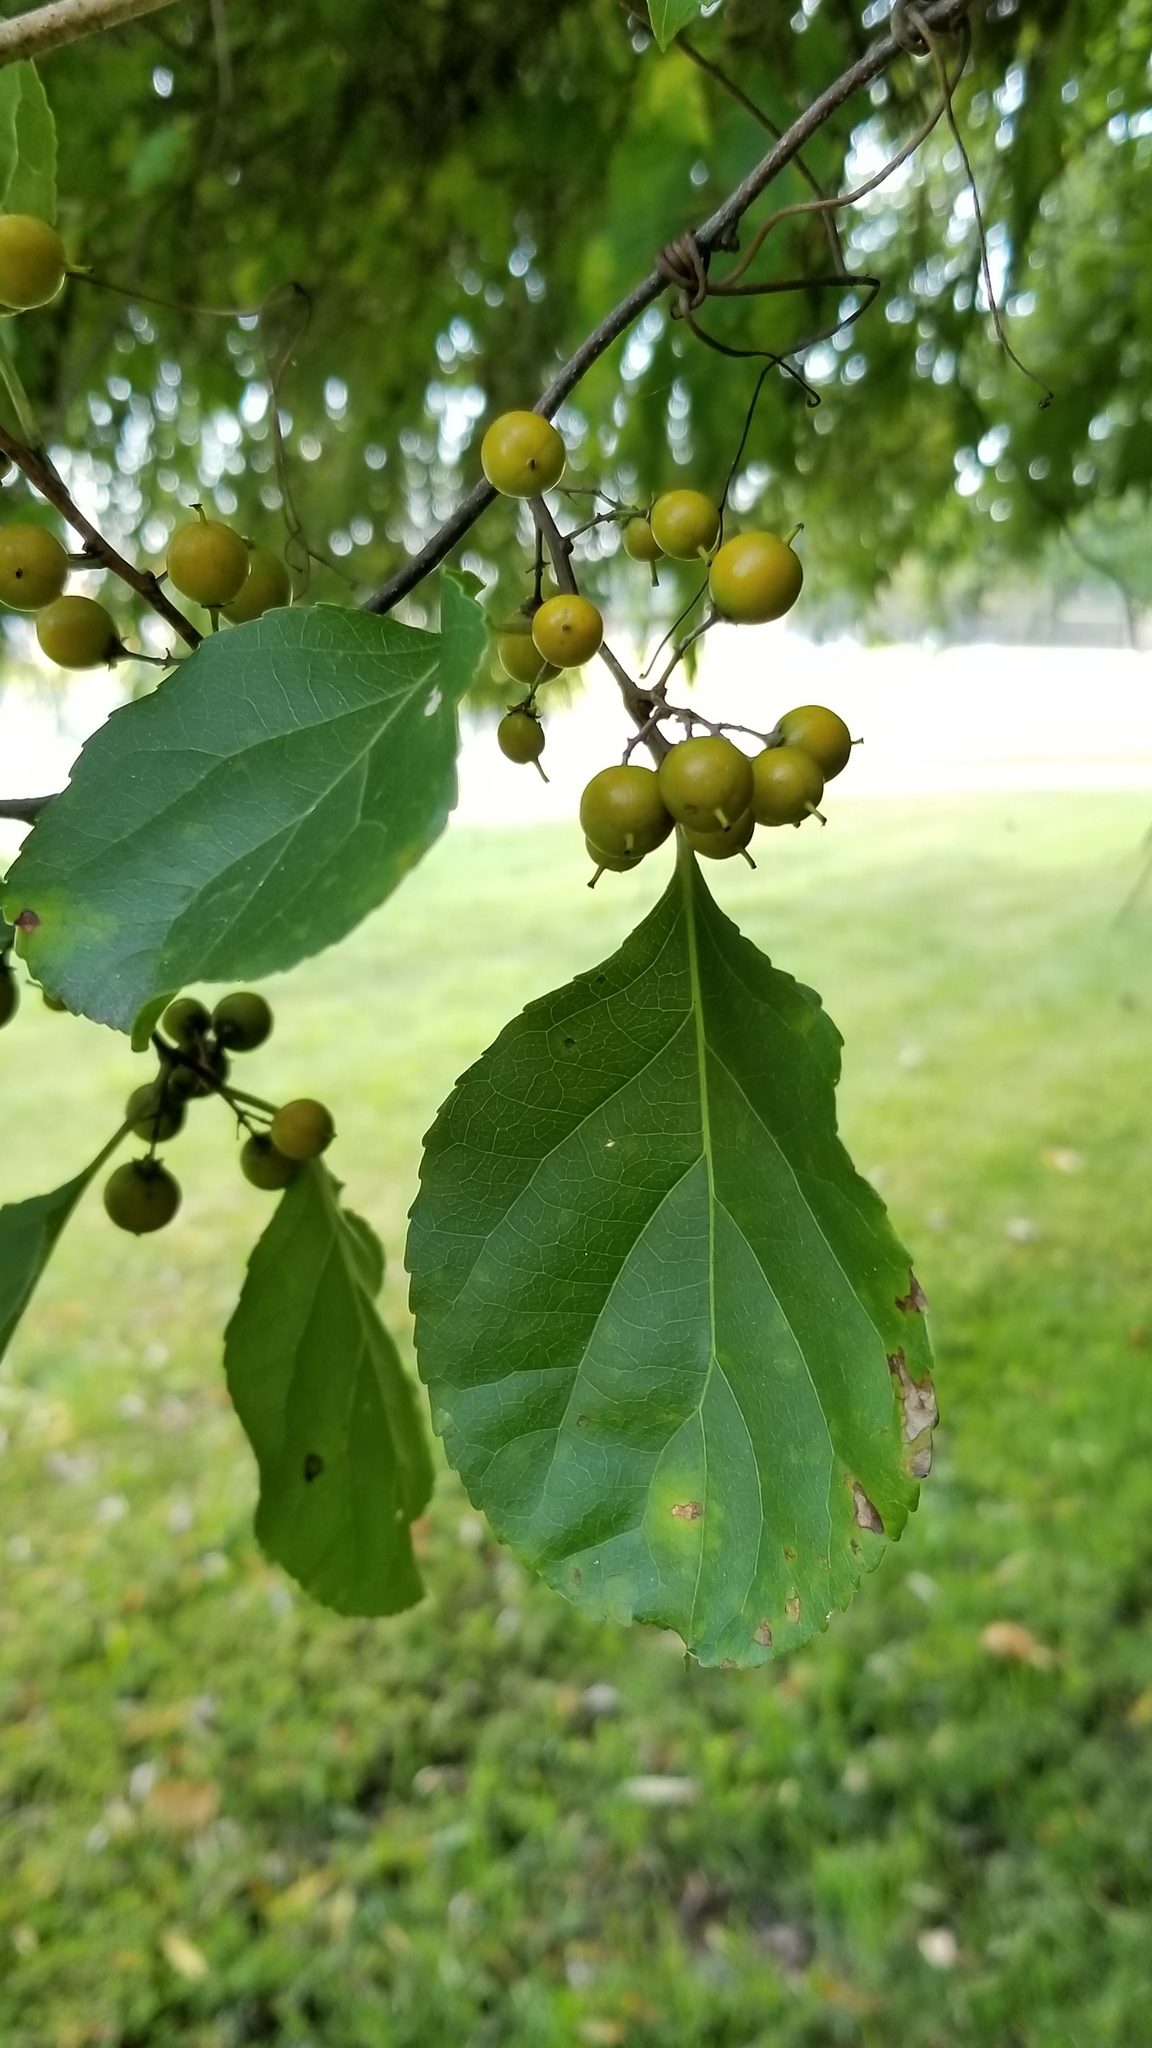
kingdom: Plantae
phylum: Tracheophyta
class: Magnoliopsida
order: Celastrales
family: Celastraceae
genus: Celastrus
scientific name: Celastrus orbiculatus
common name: Oriental bittersweet
